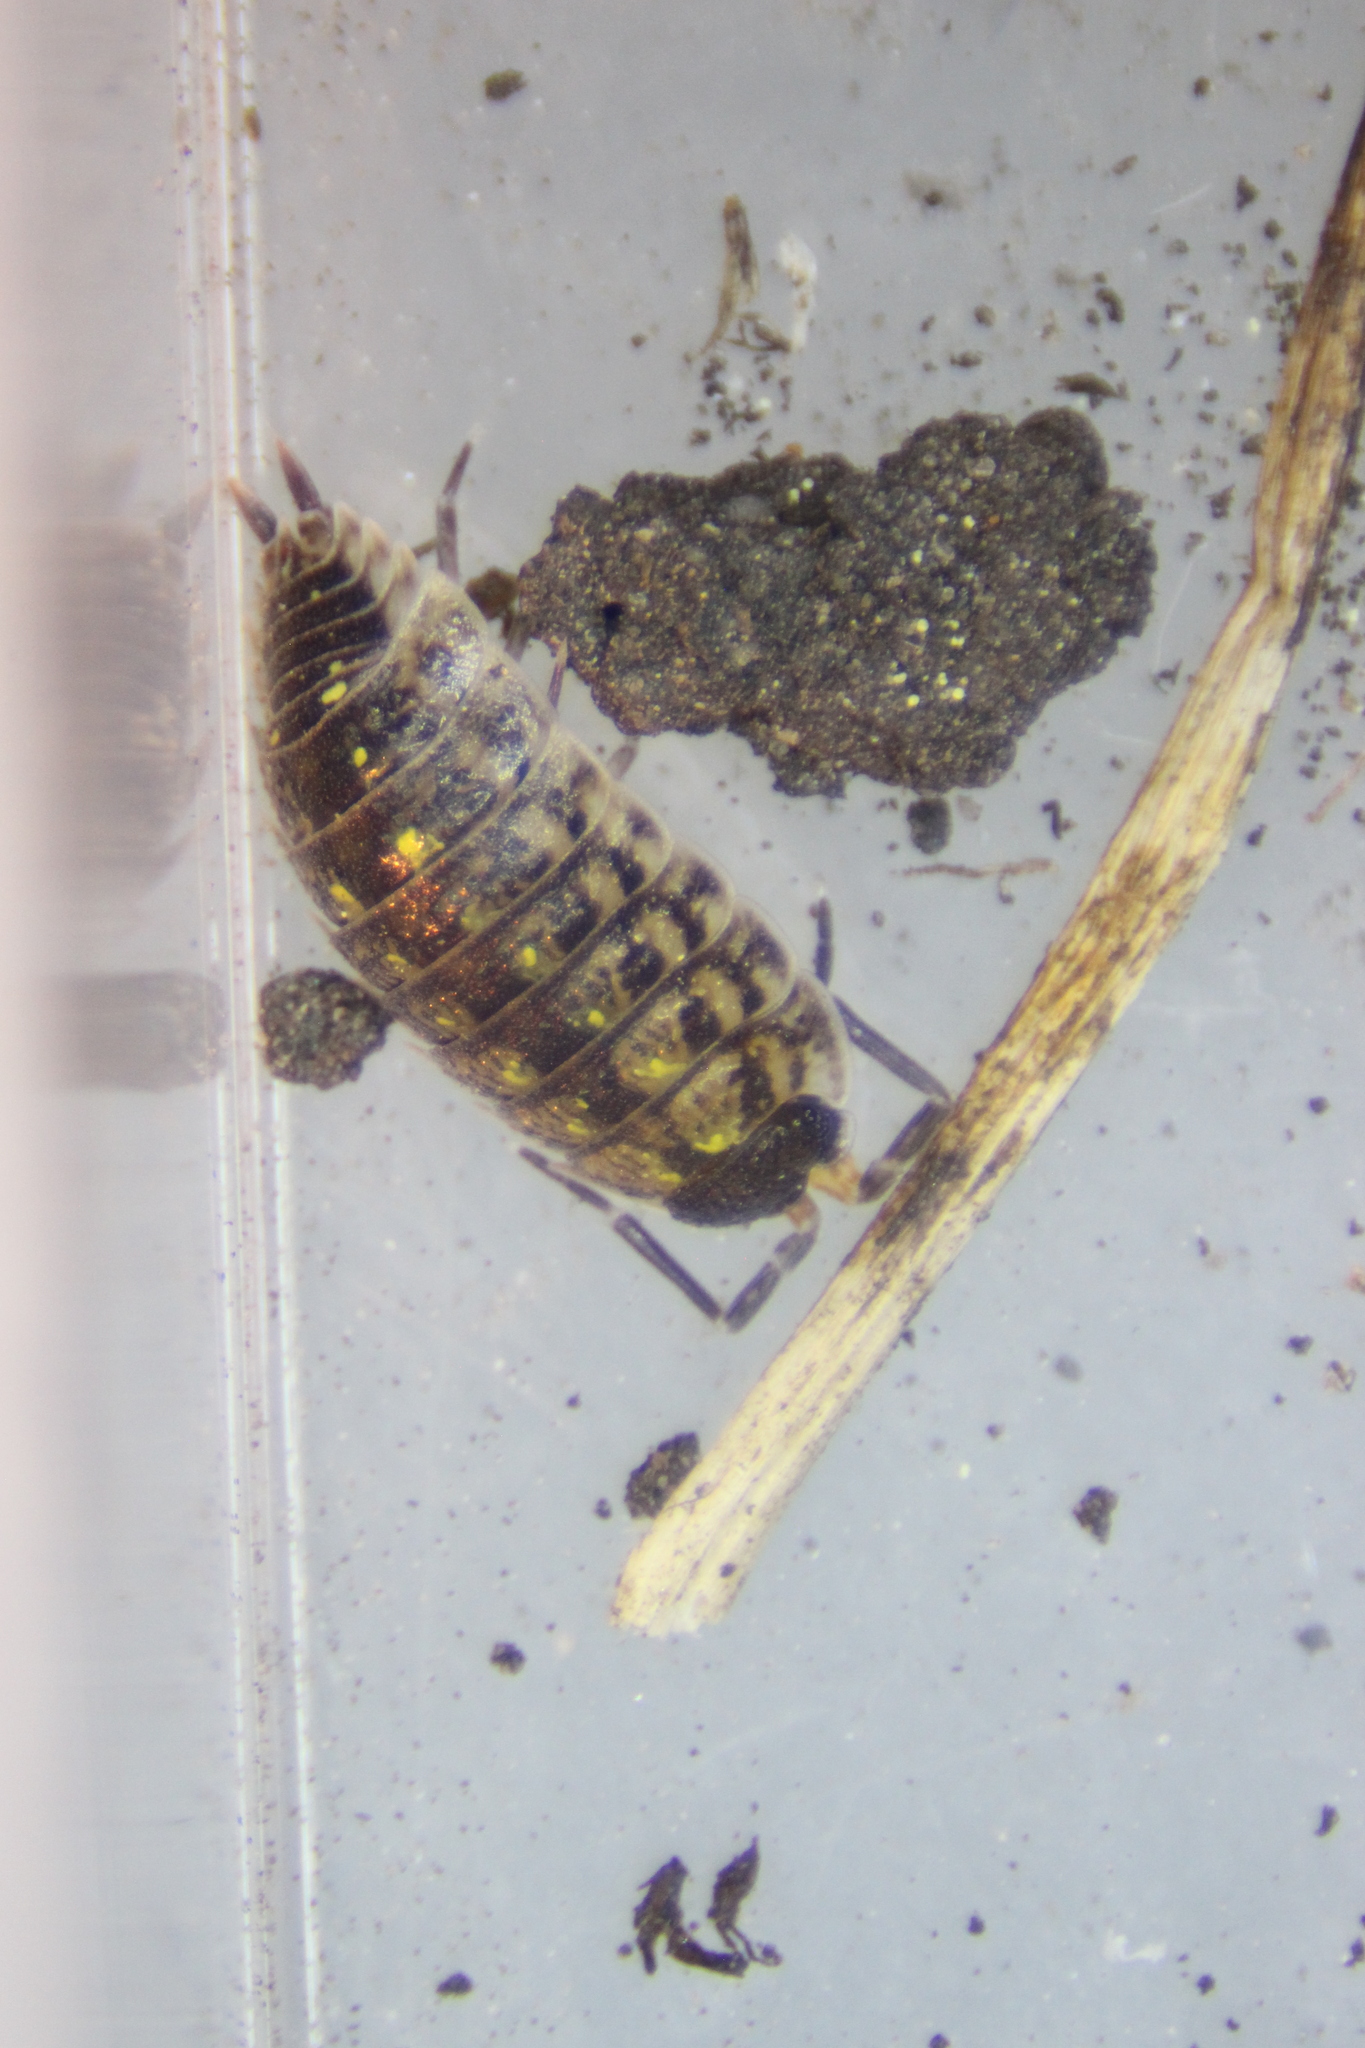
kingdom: Animalia
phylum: Arthropoda
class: Malacostraca
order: Isopoda
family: Porcellionidae
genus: Porcellio
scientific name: Porcellio spinicornis
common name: Painted woodlouse
